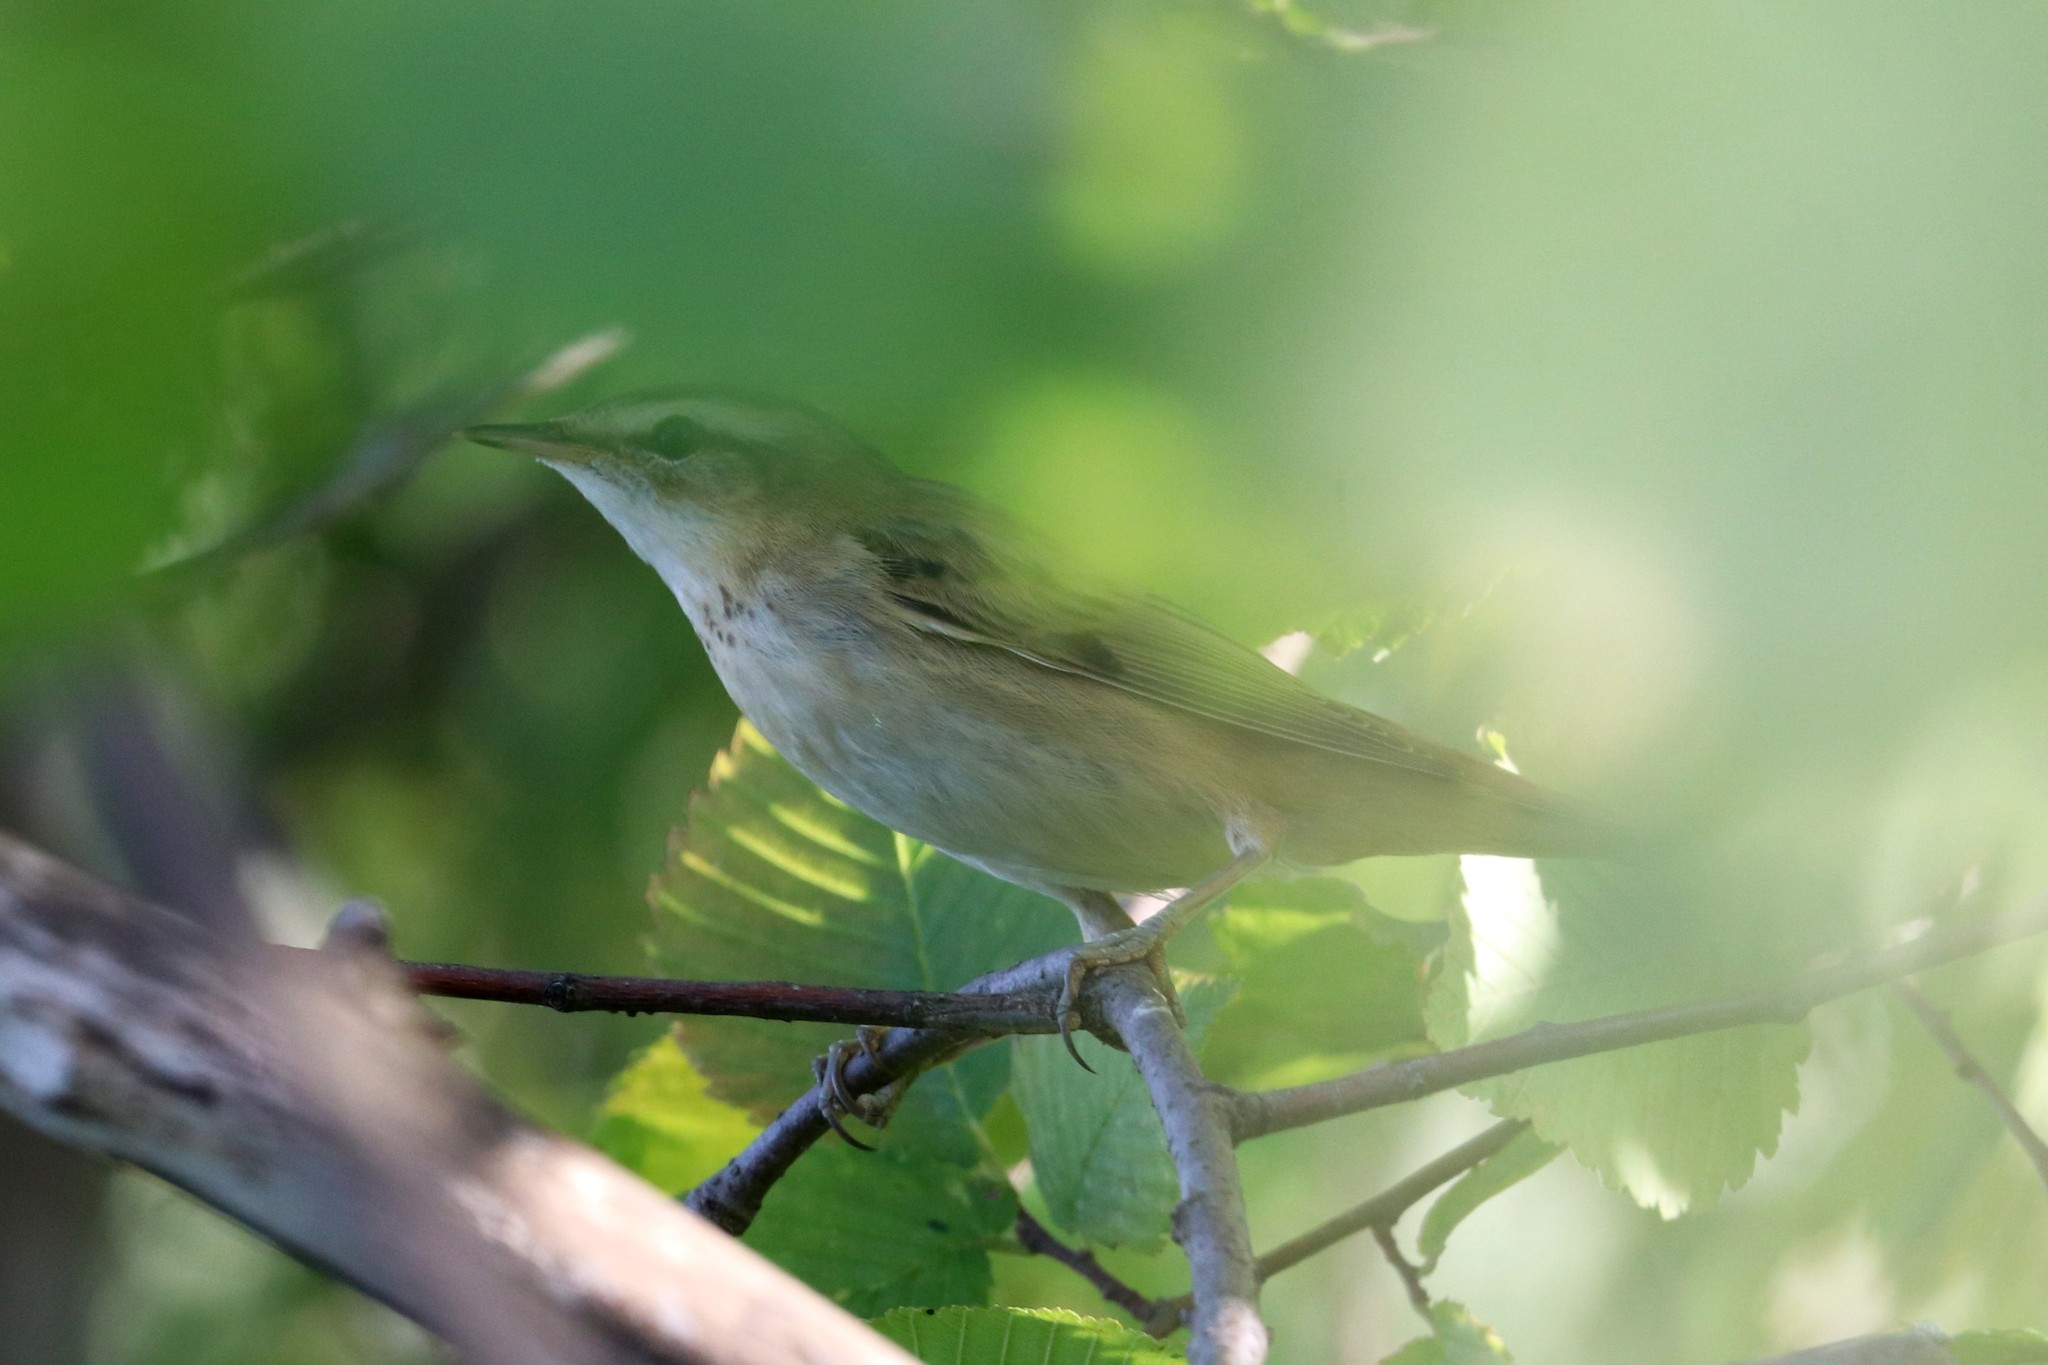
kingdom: Animalia
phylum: Chordata
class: Aves
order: Passeriformes
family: Acrocephalidae
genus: Acrocephalus
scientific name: Acrocephalus schoenobaenus
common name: Sedge warbler
